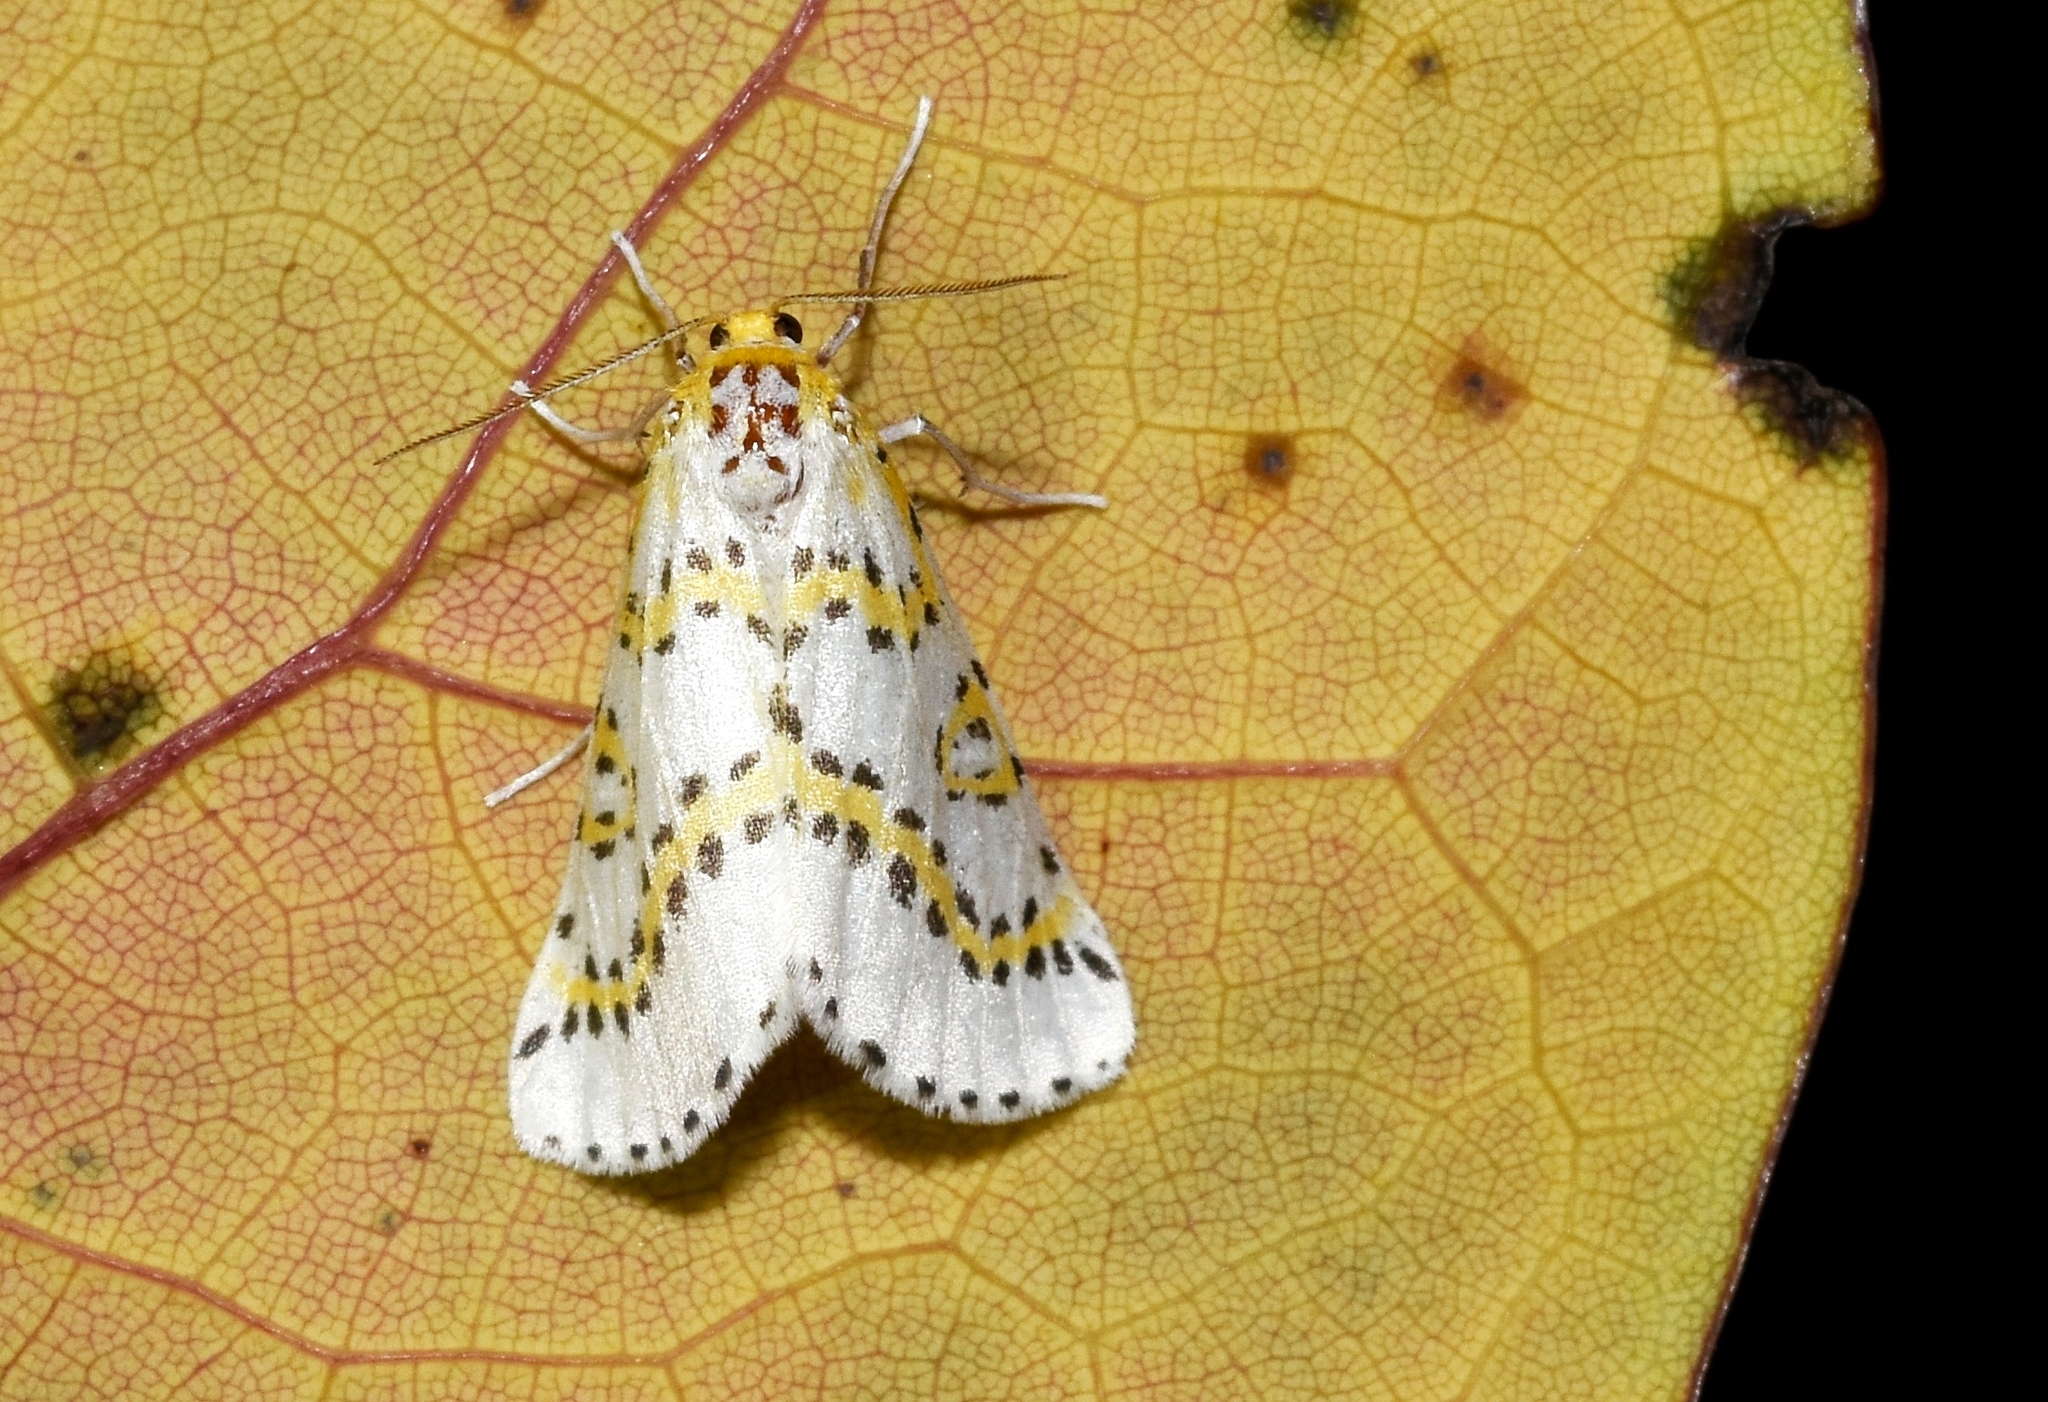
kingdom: Animalia
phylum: Arthropoda
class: Insecta
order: Lepidoptera
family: Geometridae
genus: Philtraea
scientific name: Philtraea monillata
